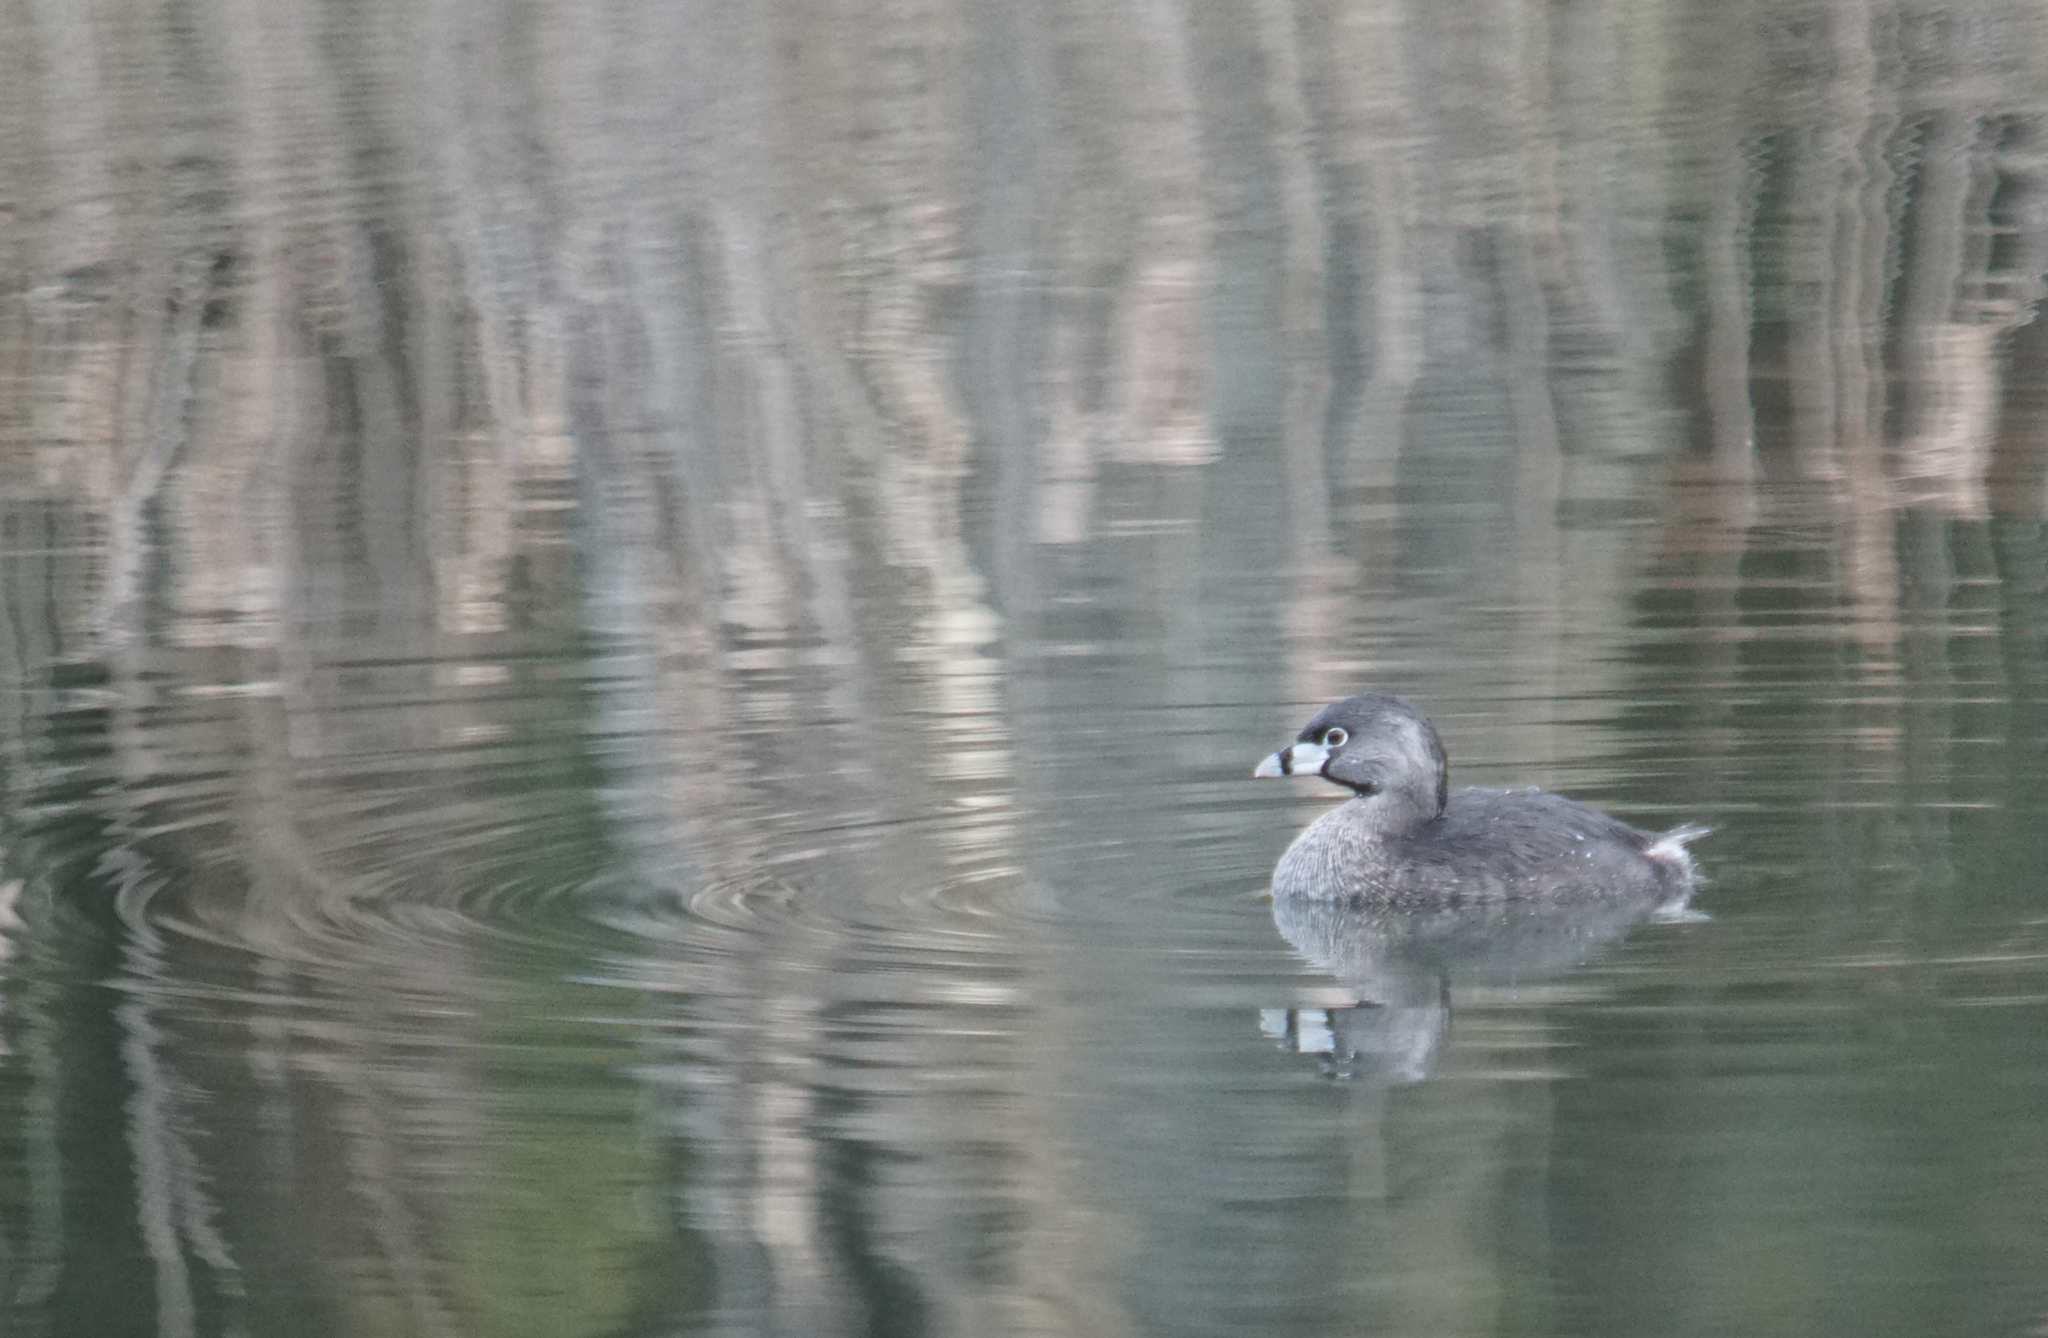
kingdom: Animalia
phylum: Chordata
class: Aves
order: Podicipediformes
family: Podicipedidae
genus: Podilymbus
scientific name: Podilymbus podiceps
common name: Pied-billed grebe
